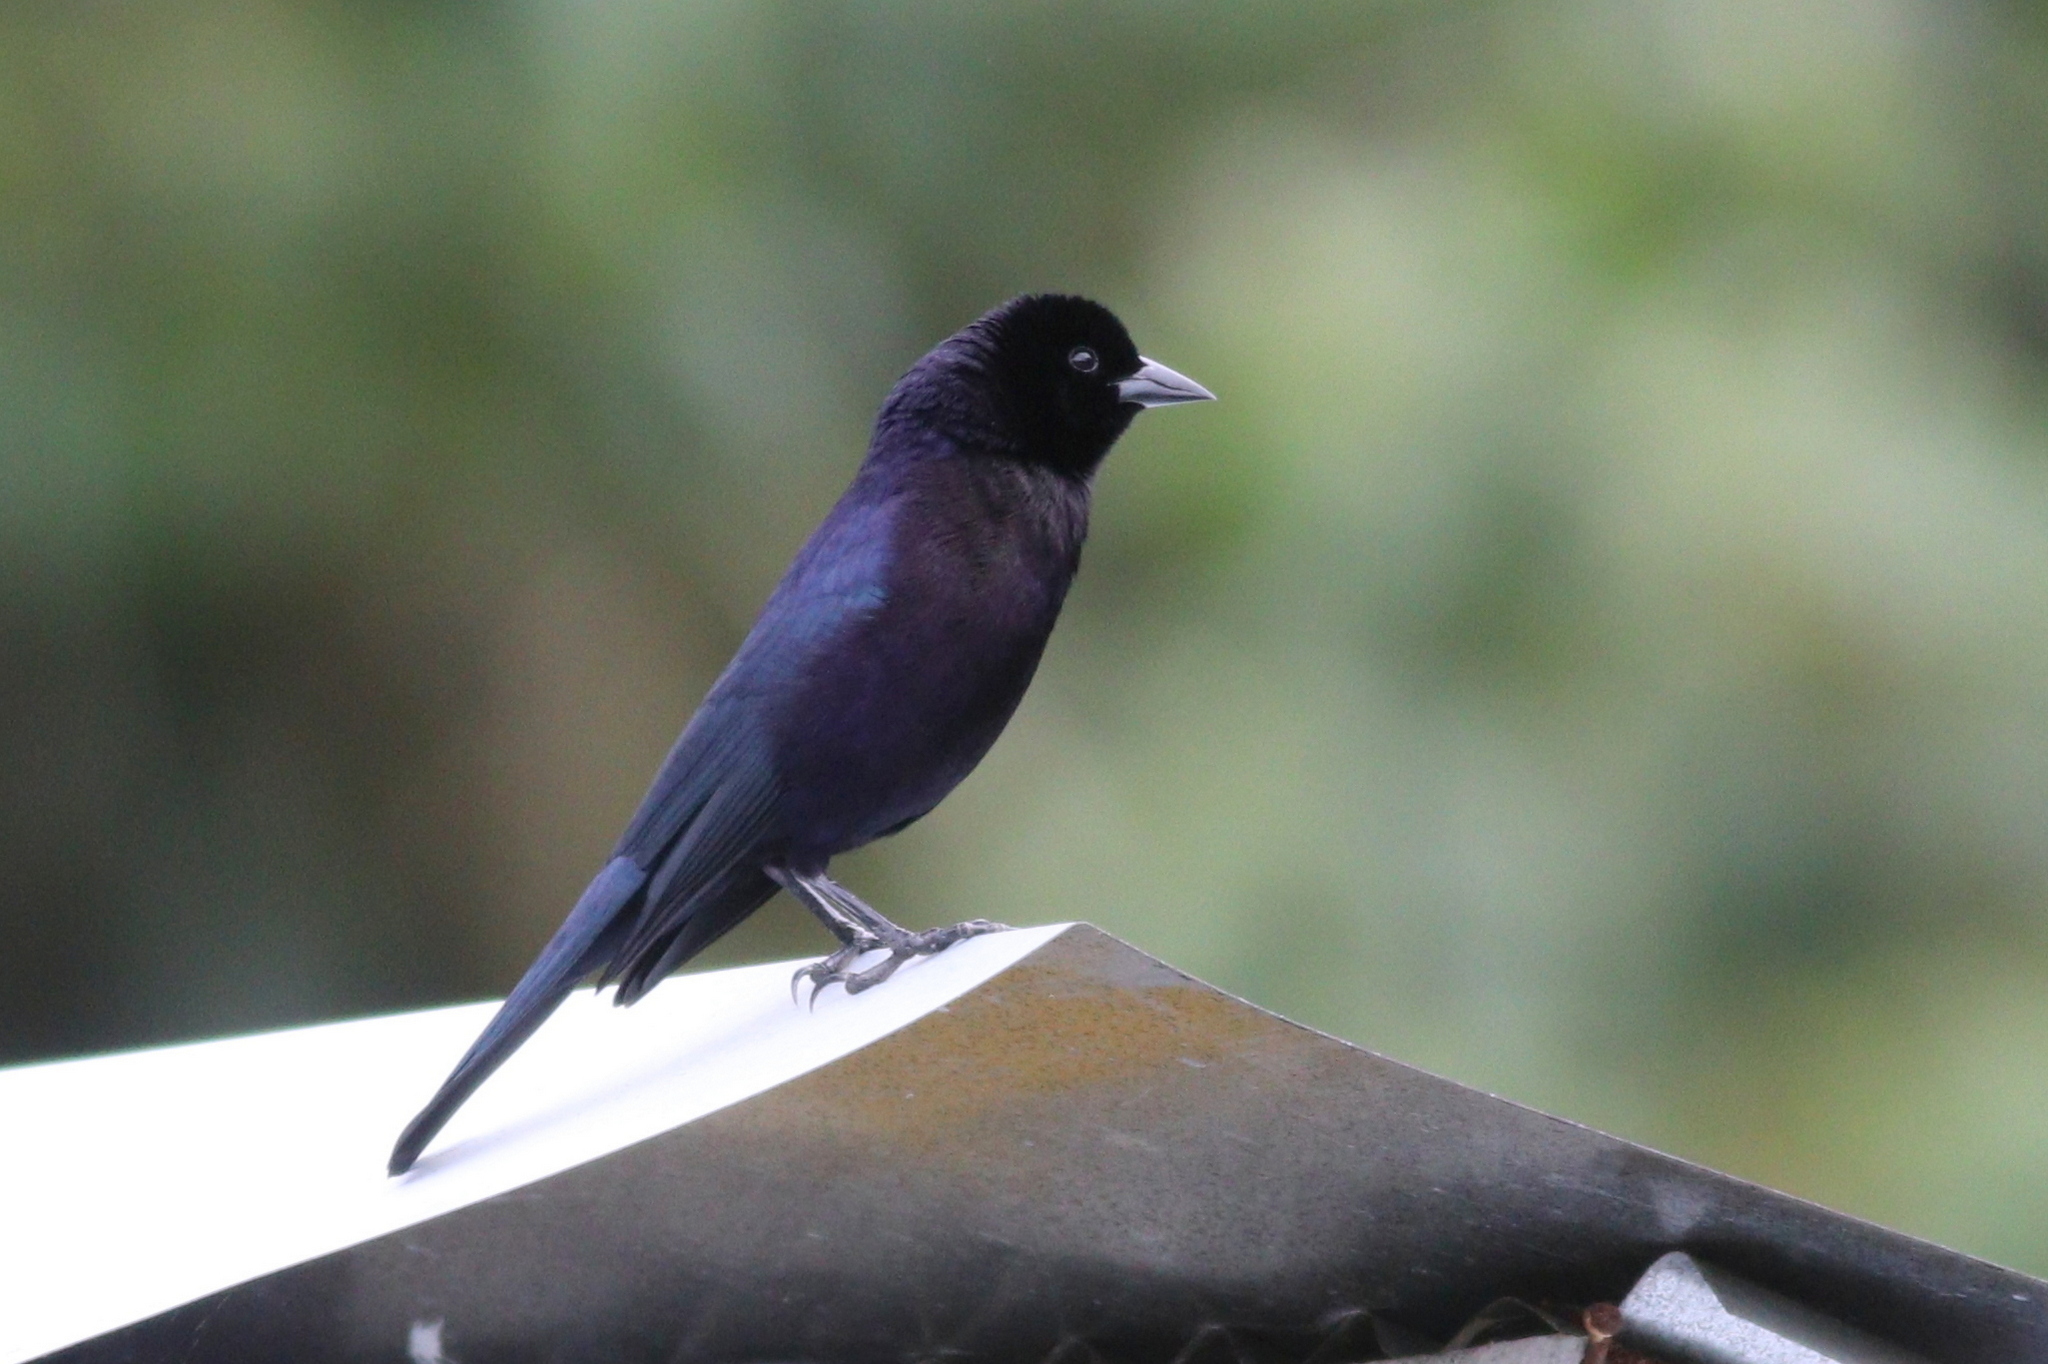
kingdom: Animalia
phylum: Chordata
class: Aves
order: Passeriformes
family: Icteridae
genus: Molothrus
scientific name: Molothrus bonariensis
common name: Shiny cowbird
